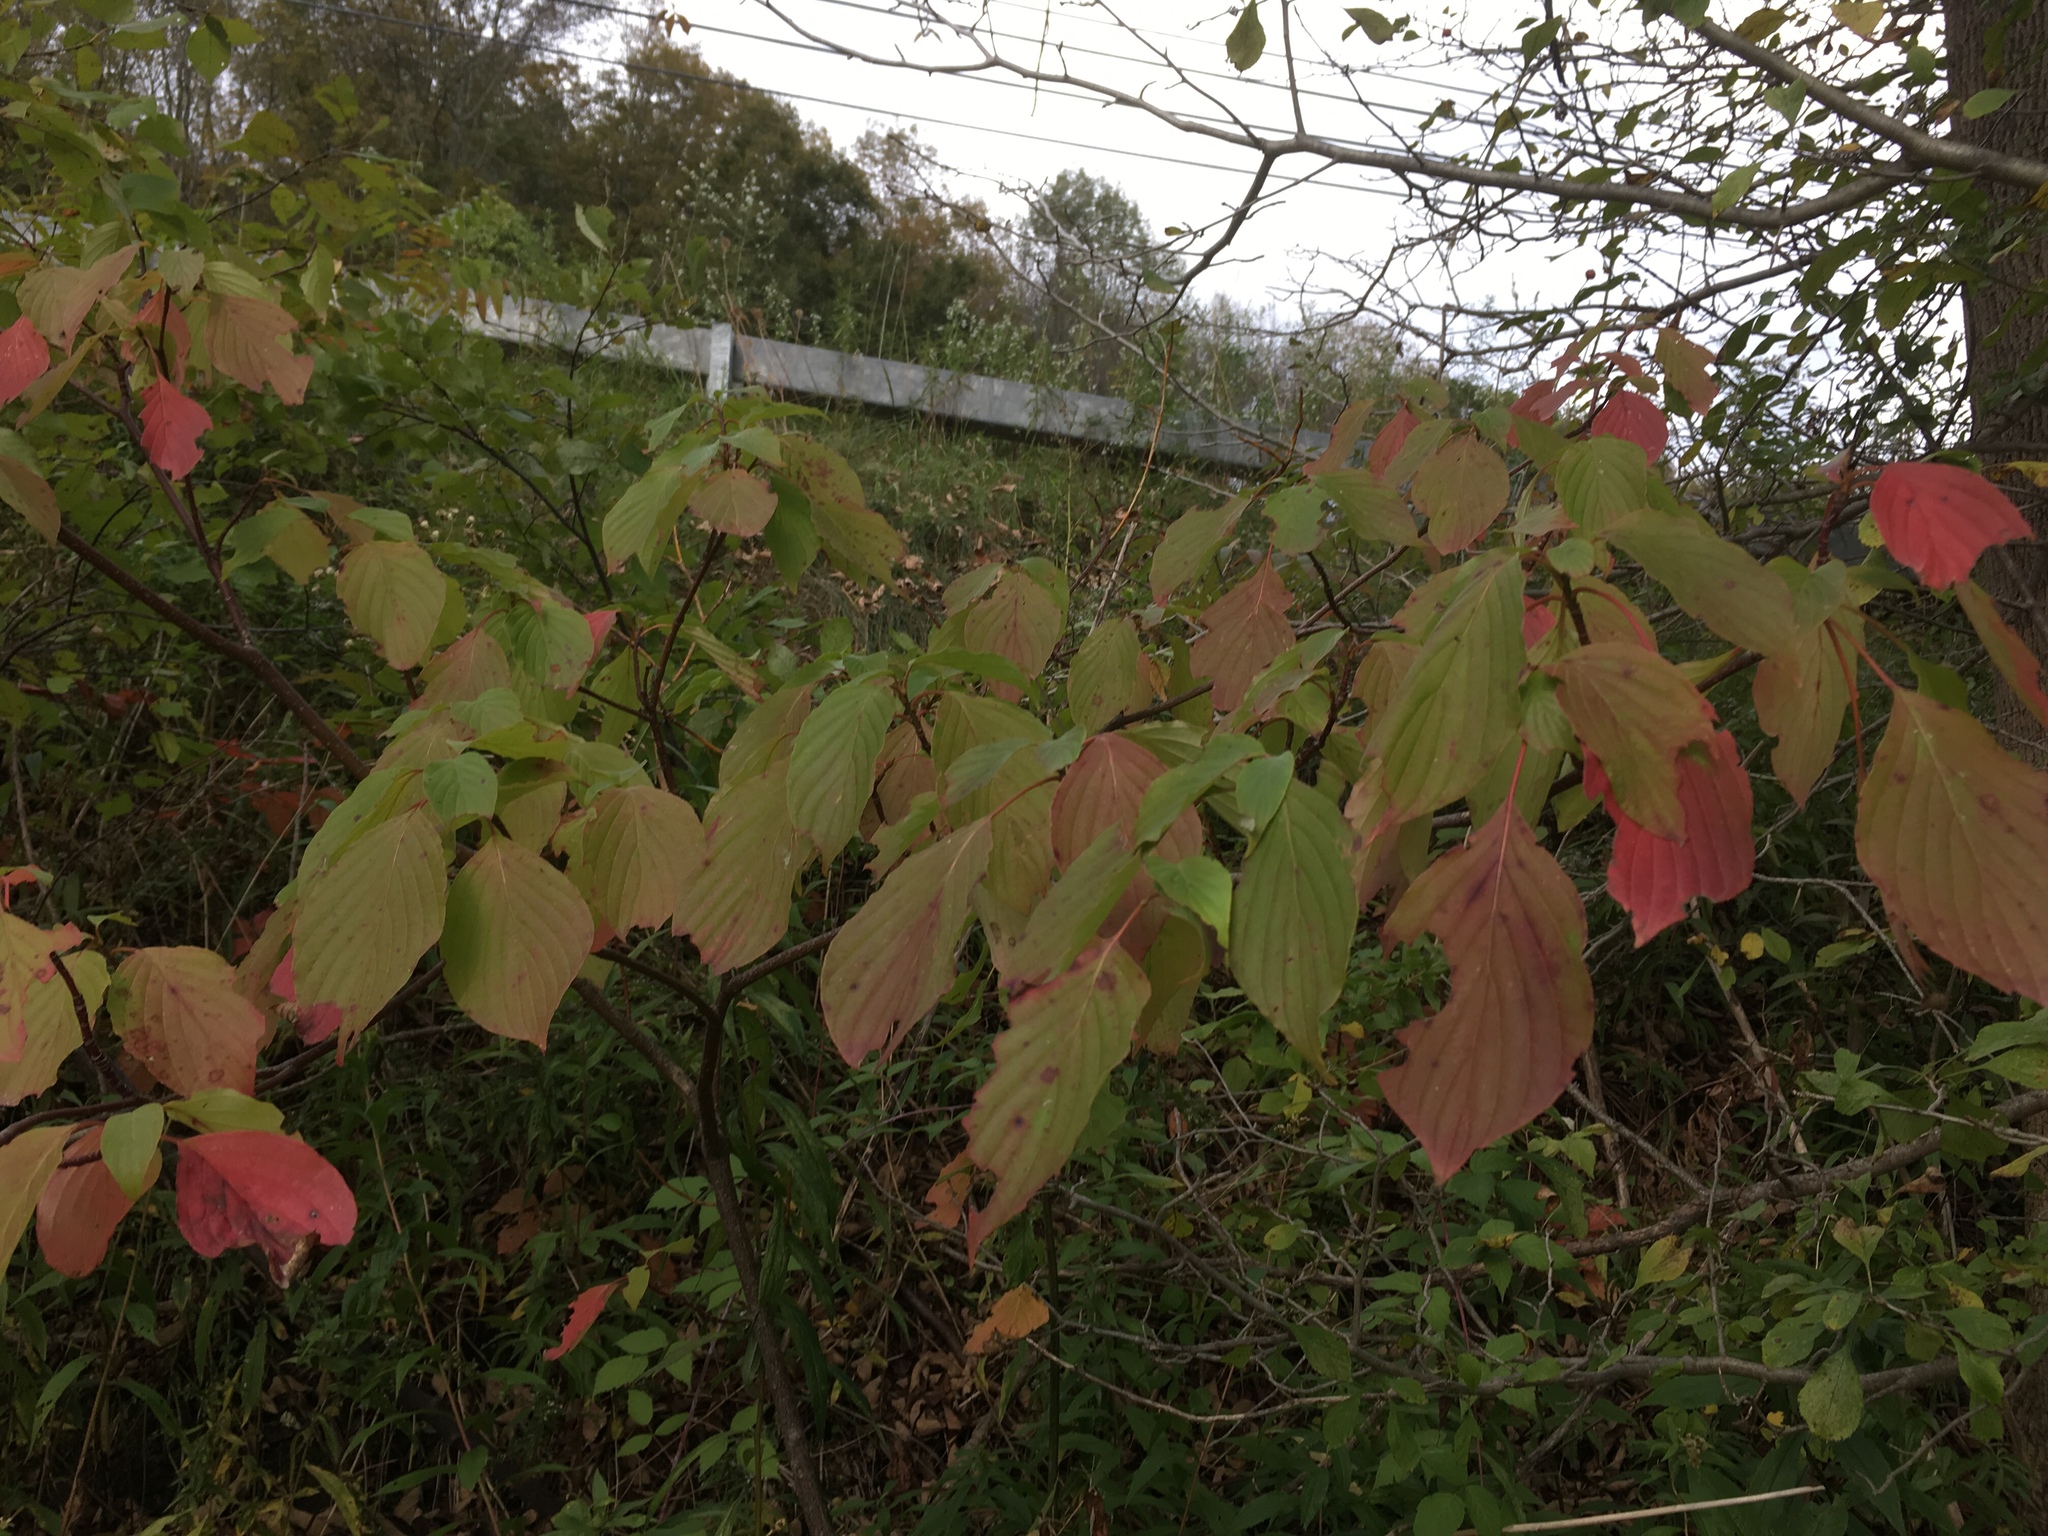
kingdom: Plantae
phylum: Tracheophyta
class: Magnoliopsida
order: Cornales
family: Cornaceae
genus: Cornus
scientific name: Cornus alternifolia
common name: Pagoda dogwood
